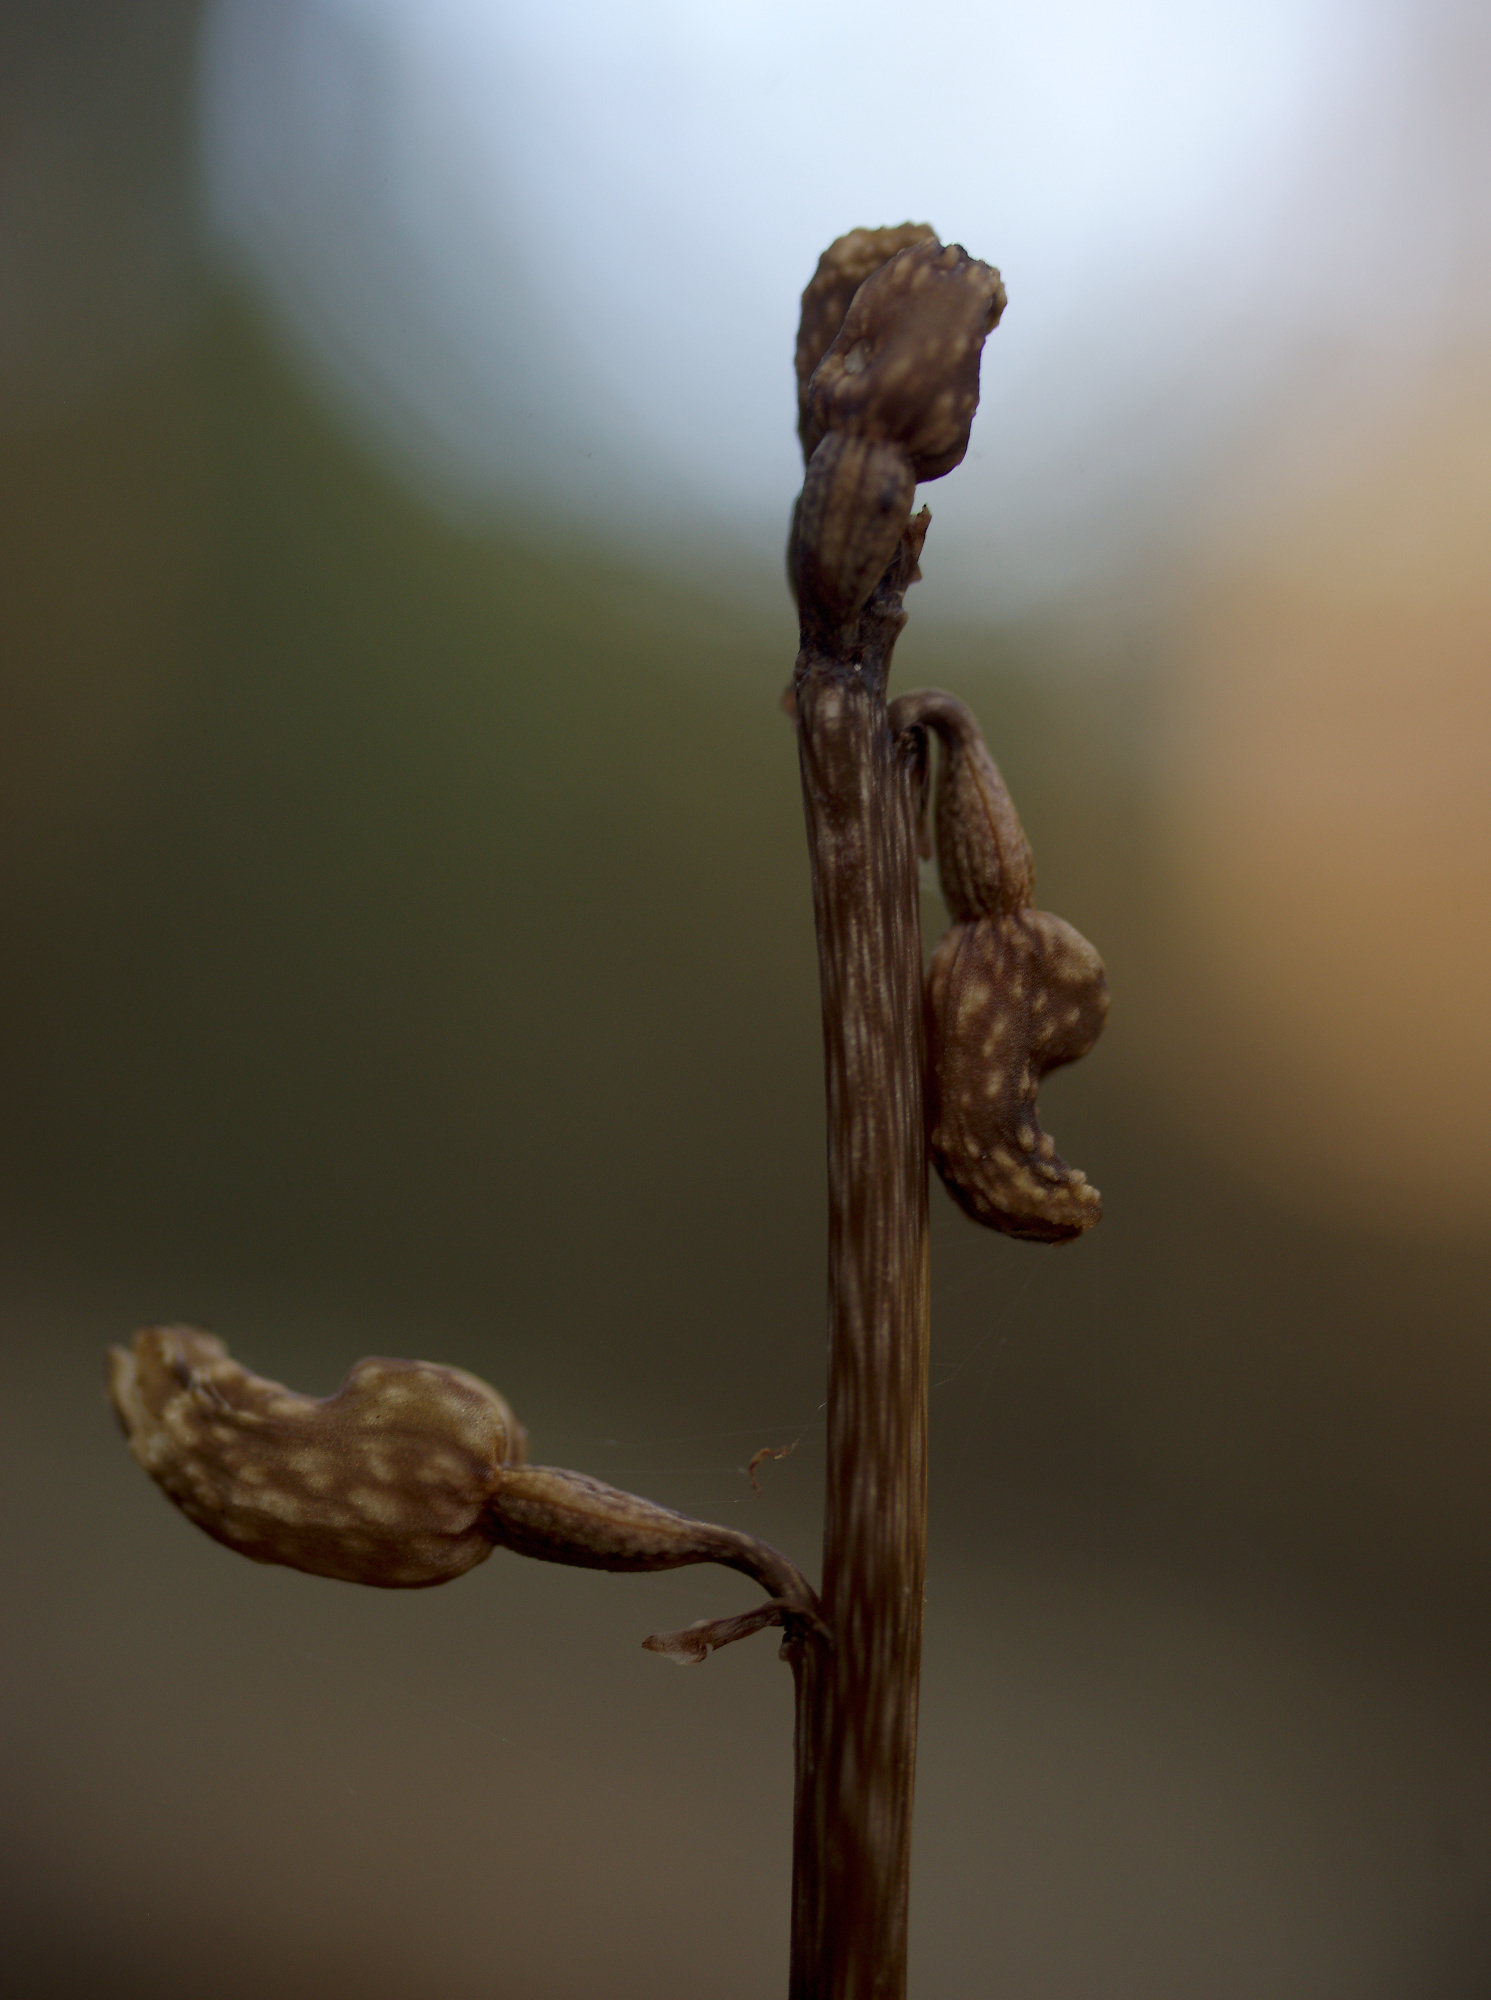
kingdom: Plantae
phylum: Tracheophyta
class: Liliopsida
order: Asparagales
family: Orchidaceae
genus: Gastrodia
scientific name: Gastrodia cunninghamii
